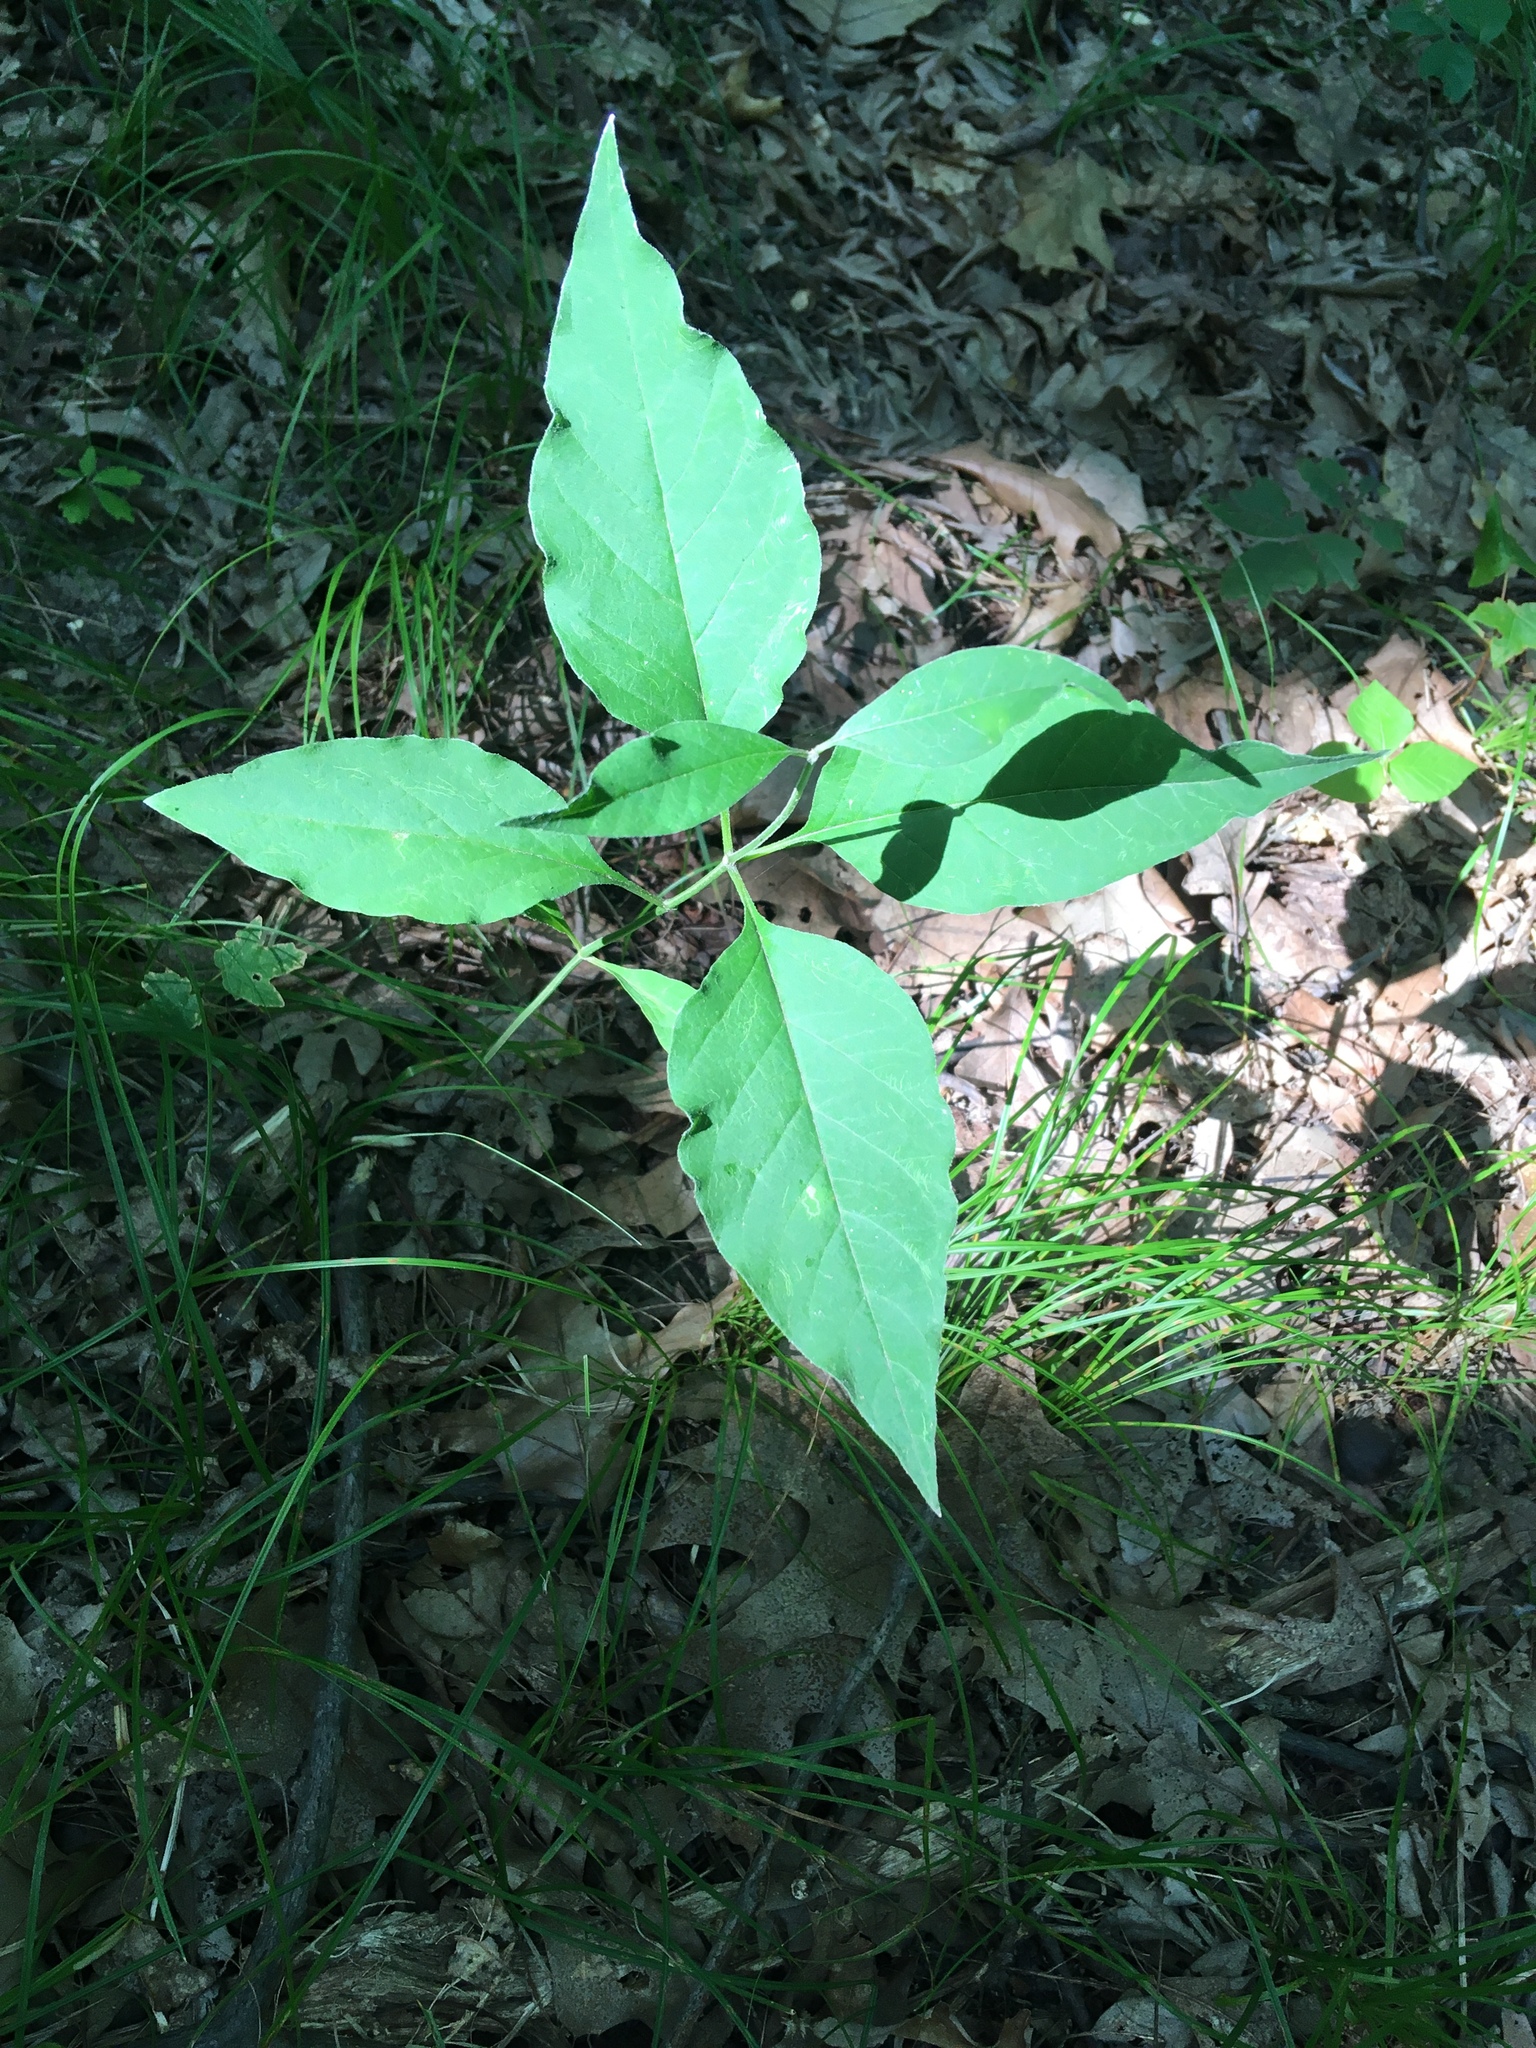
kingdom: Plantae
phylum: Tracheophyta
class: Magnoliopsida
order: Gentianales
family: Apocynaceae
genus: Asclepias
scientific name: Asclepias quadrifolia
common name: Whorled milkweed
